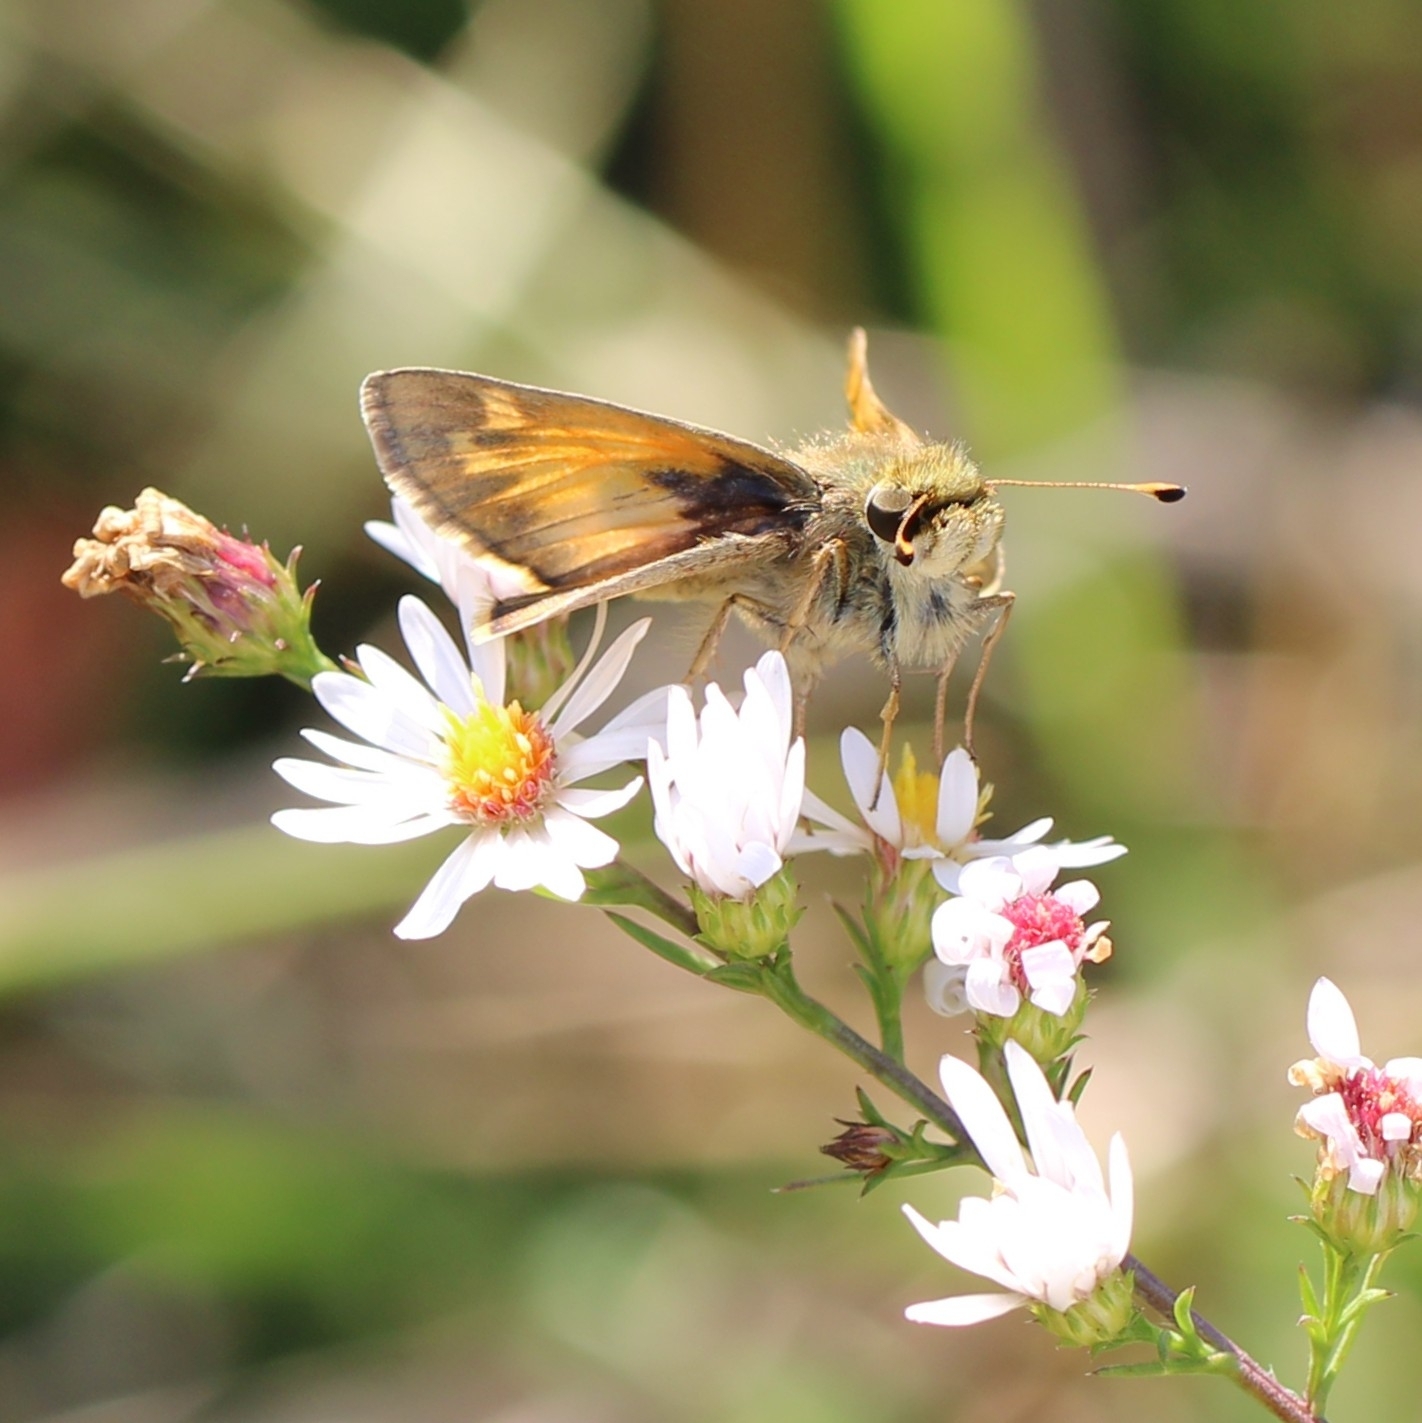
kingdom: Animalia
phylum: Arthropoda
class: Insecta
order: Lepidoptera
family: Hesperiidae
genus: Atalopedes
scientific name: Atalopedes
